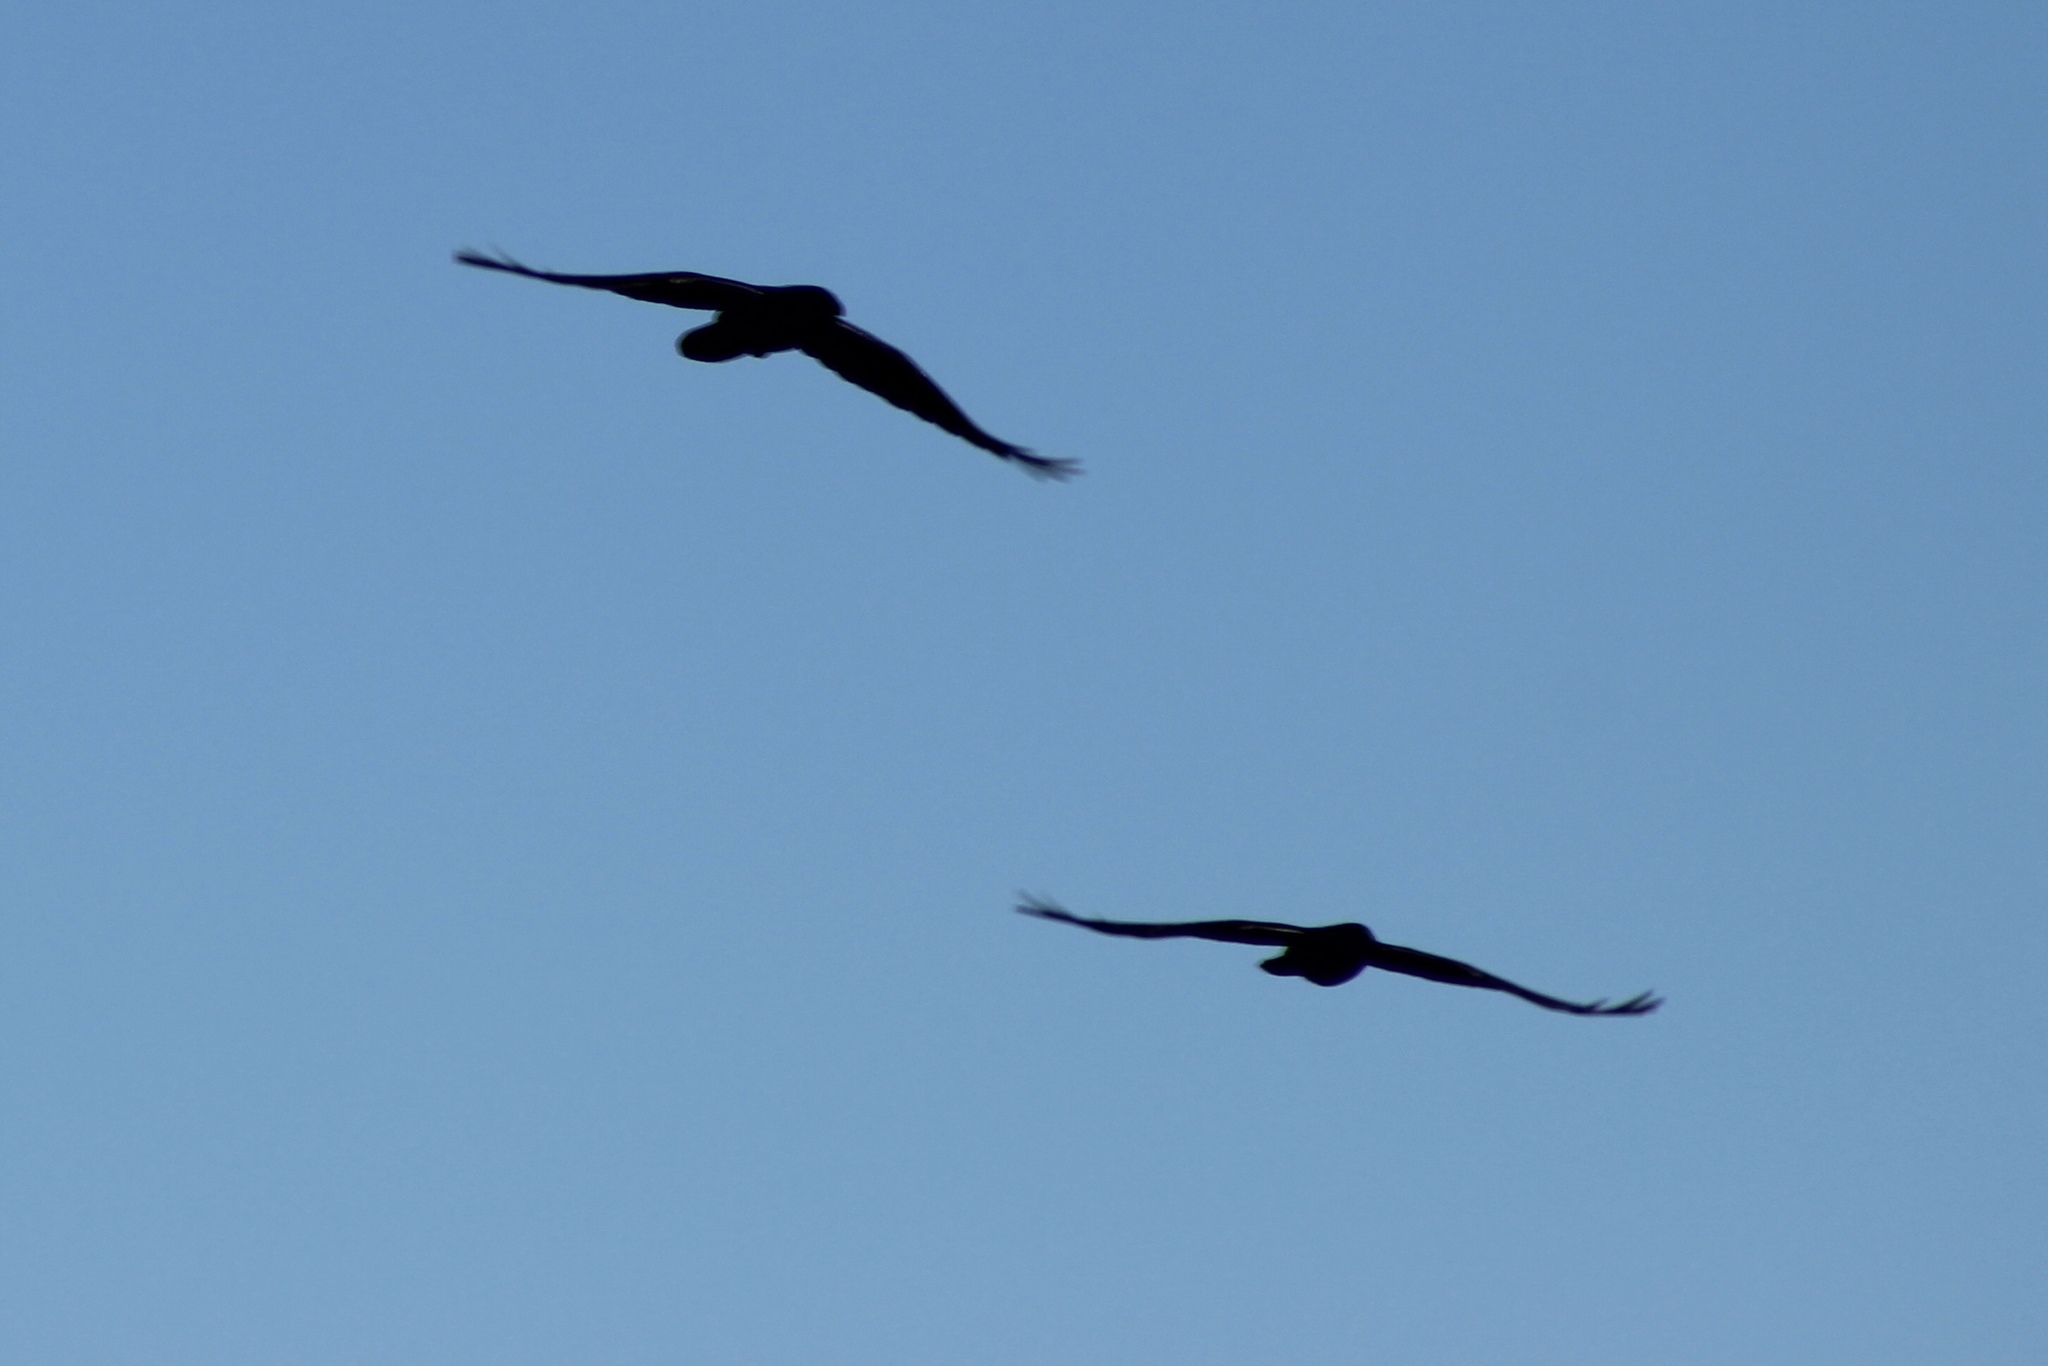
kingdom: Animalia
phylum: Chordata
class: Aves
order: Passeriformes
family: Corvidae
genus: Corvus
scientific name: Corvus
